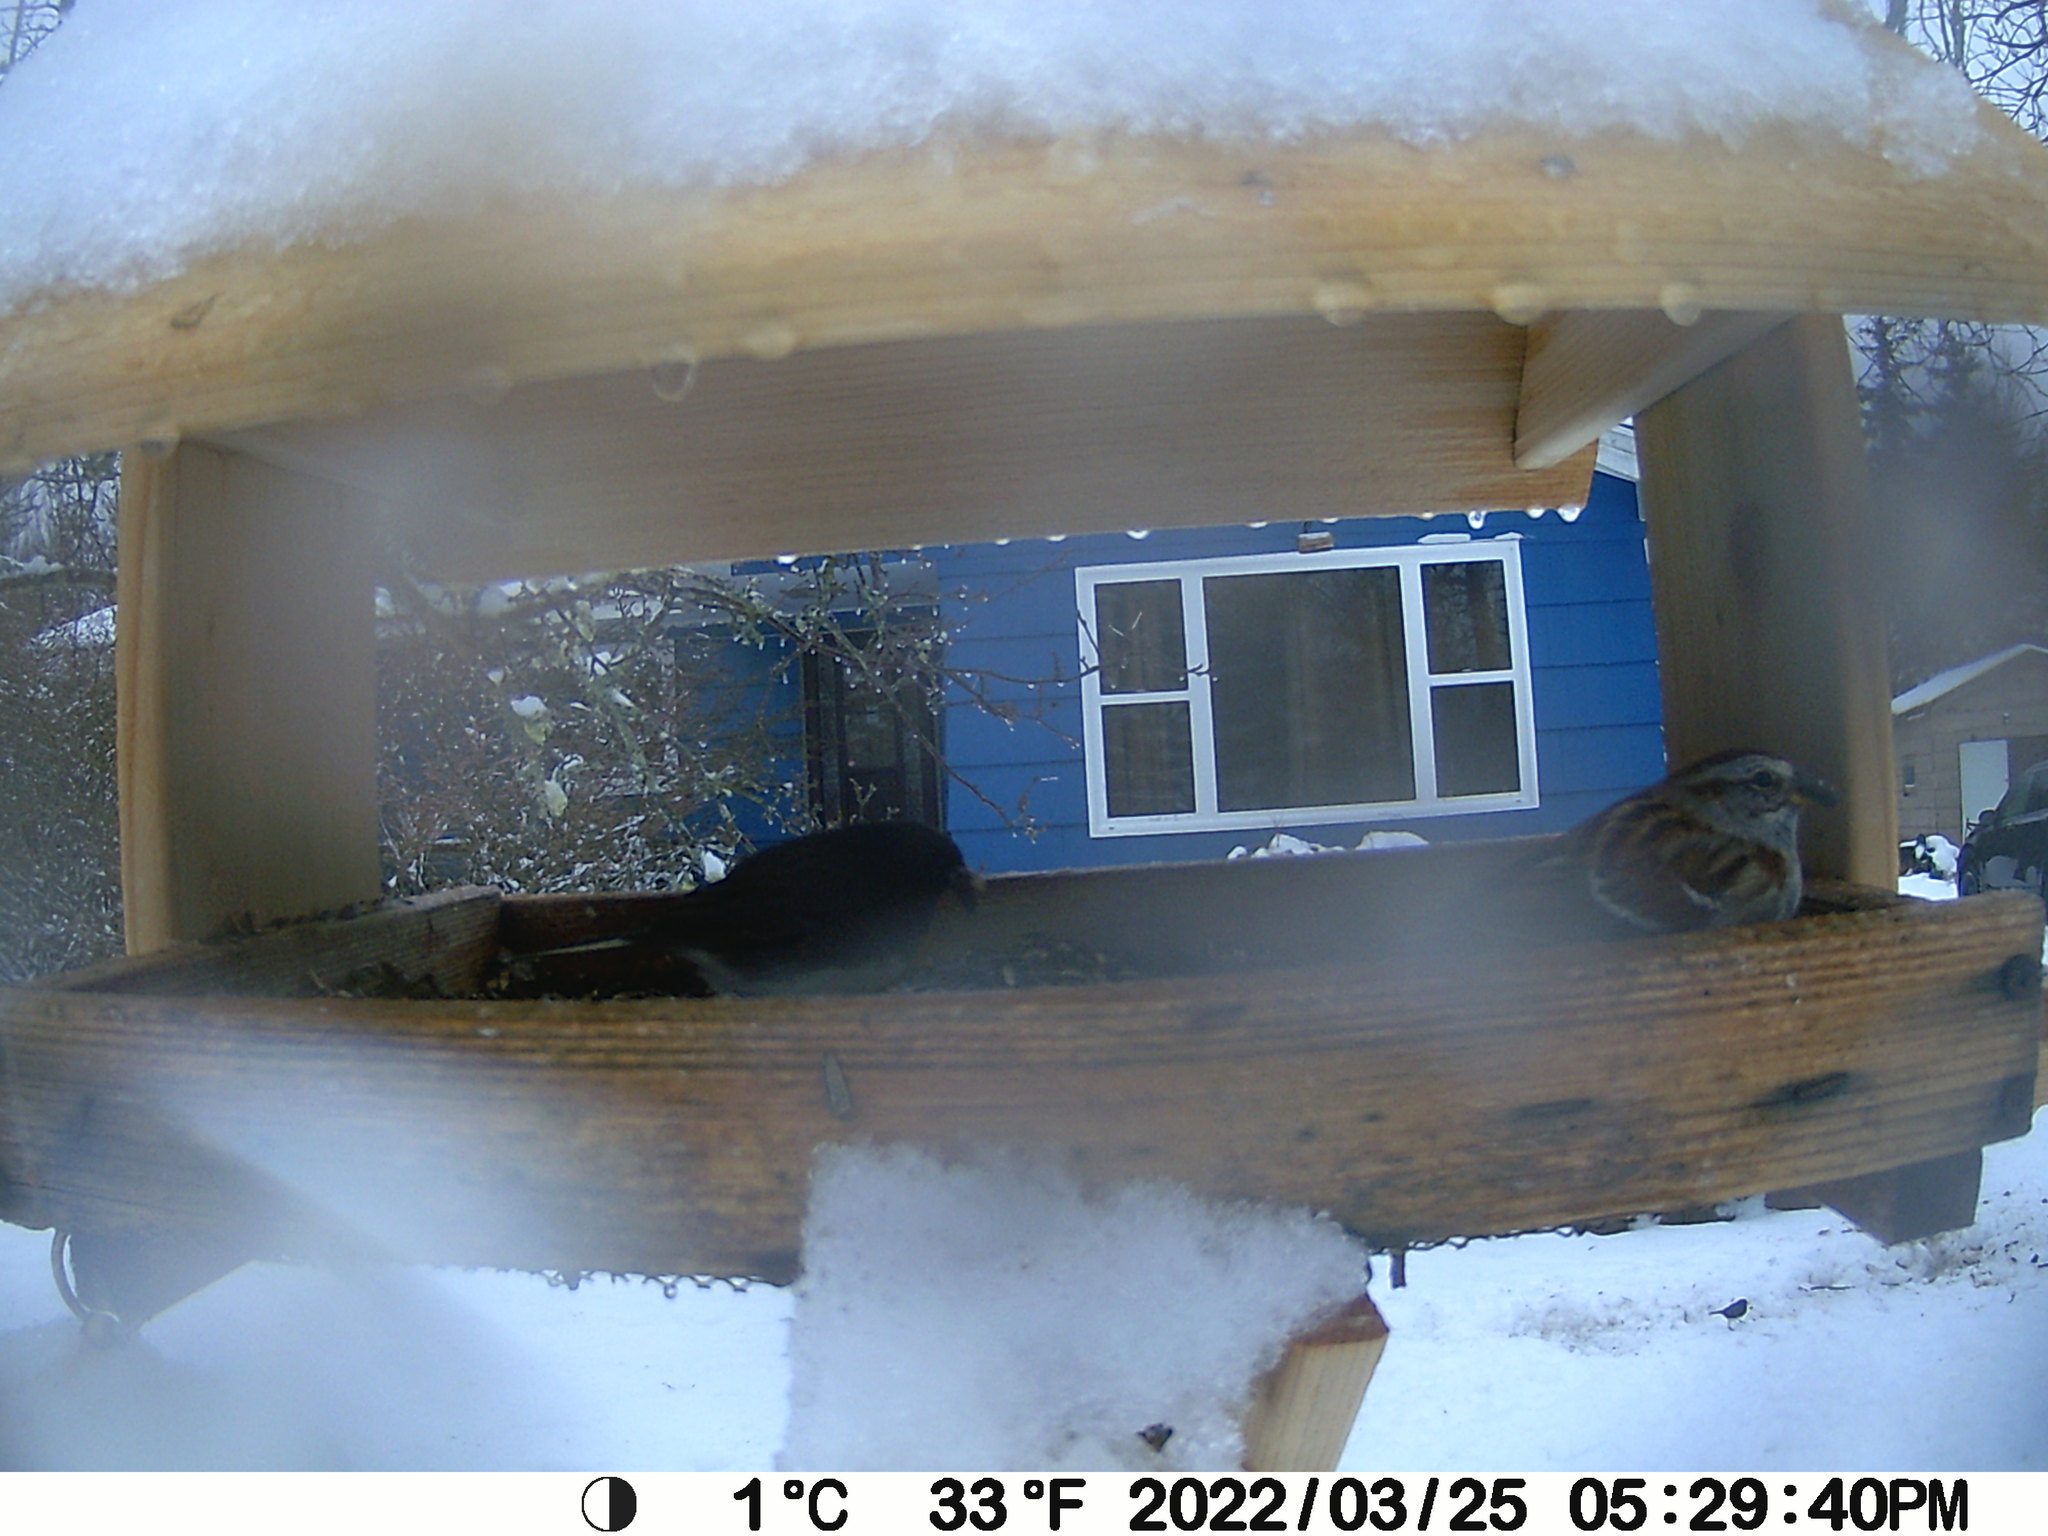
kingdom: Animalia
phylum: Chordata
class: Aves
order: Passeriformes
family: Passerellidae
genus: Spizelloides
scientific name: Spizelloides arborea
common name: American tree sparrow
